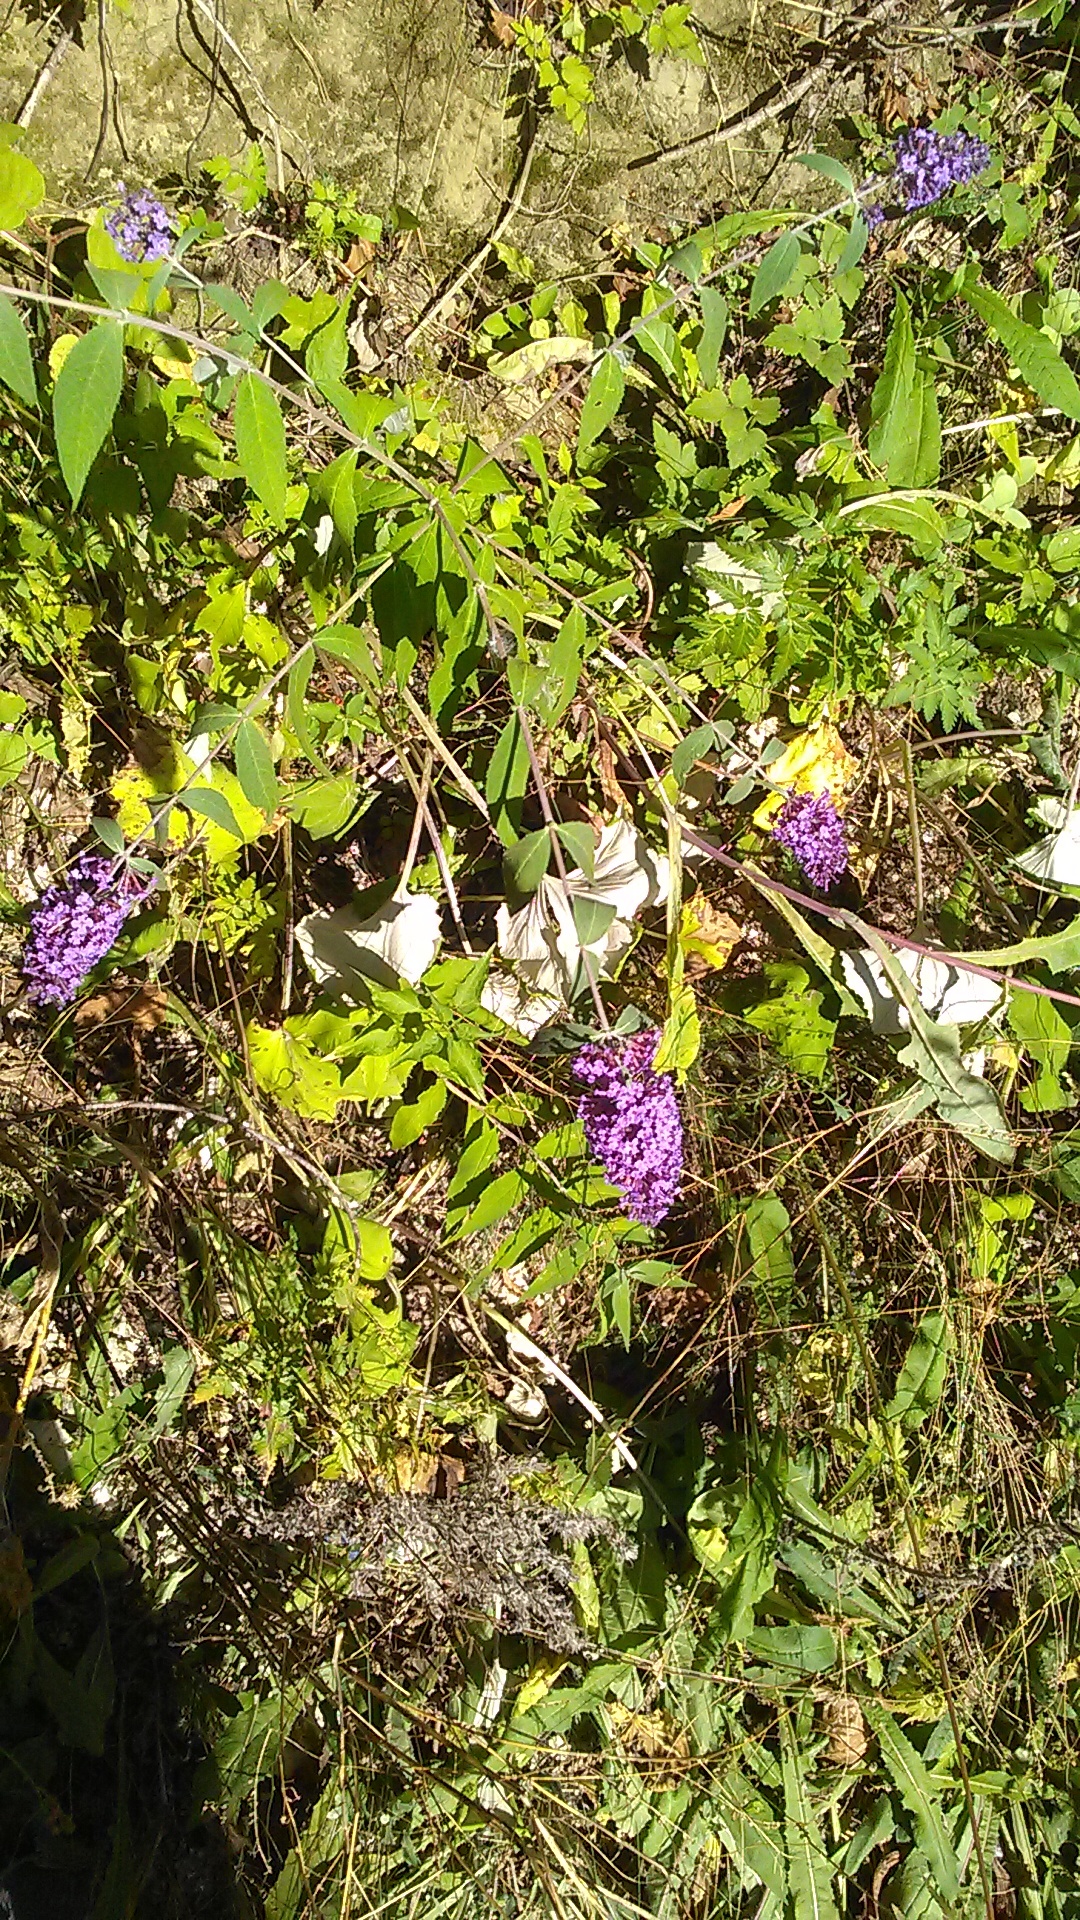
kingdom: Plantae
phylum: Tracheophyta
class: Magnoliopsida
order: Lamiales
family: Scrophulariaceae
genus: Buddleja
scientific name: Buddleja davidii
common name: Butterfly-bush
